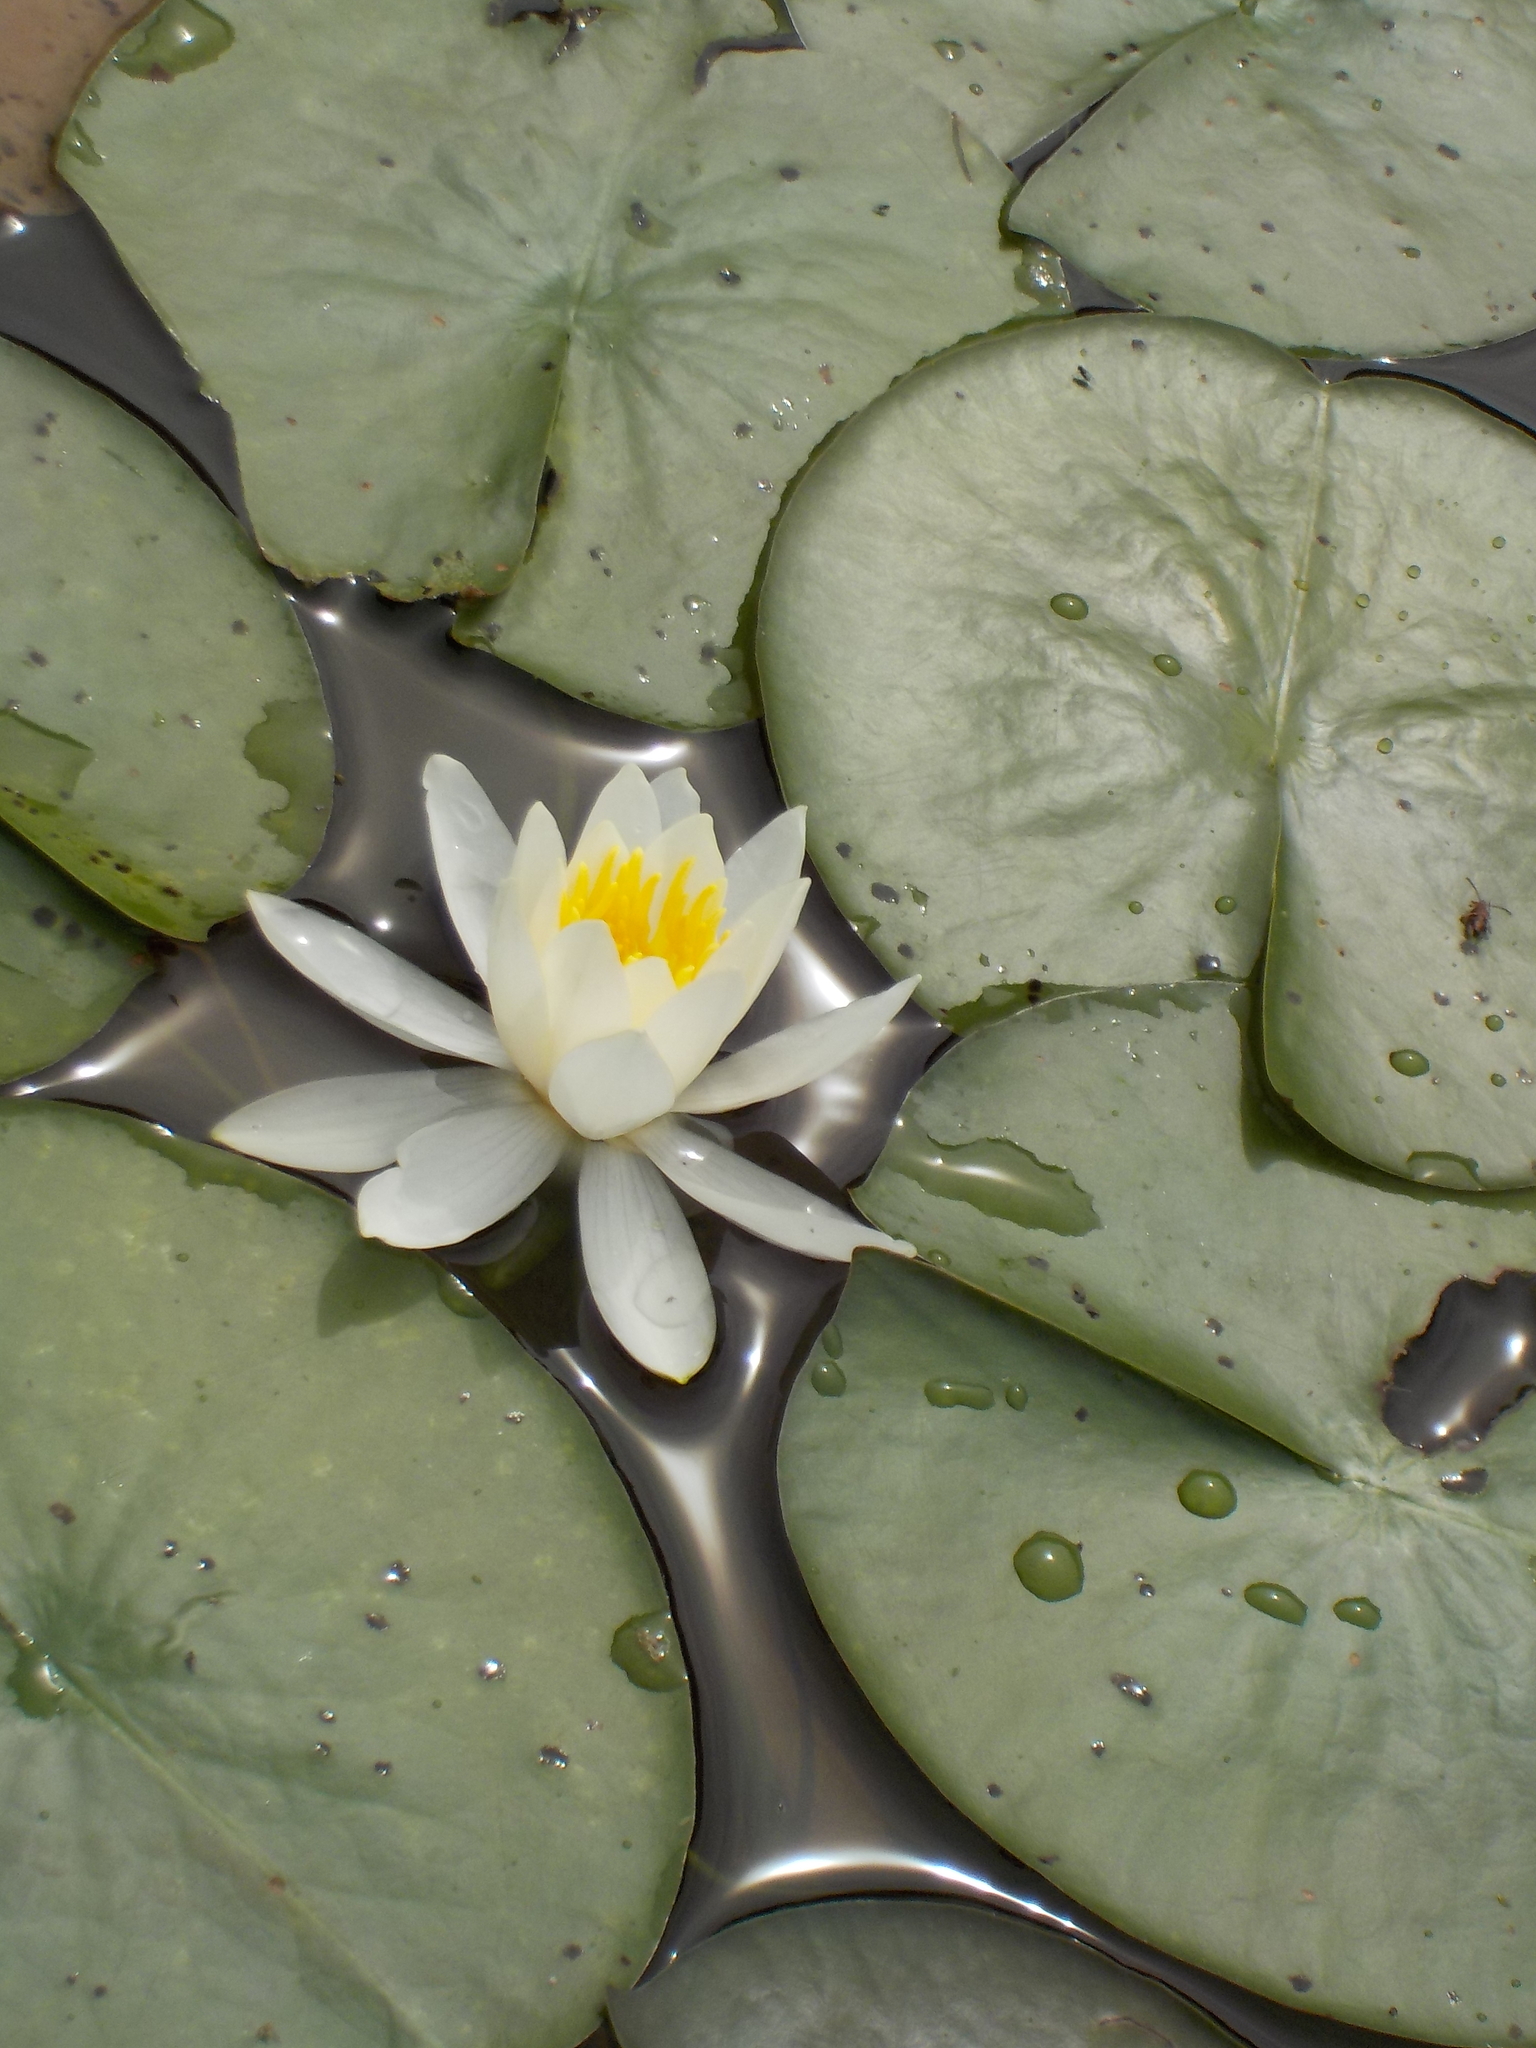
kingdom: Plantae
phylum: Tracheophyta
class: Magnoliopsida
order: Nymphaeales
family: Nymphaeaceae
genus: Nymphaea
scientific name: Nymphaea odorata
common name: Fragrant water-lily
